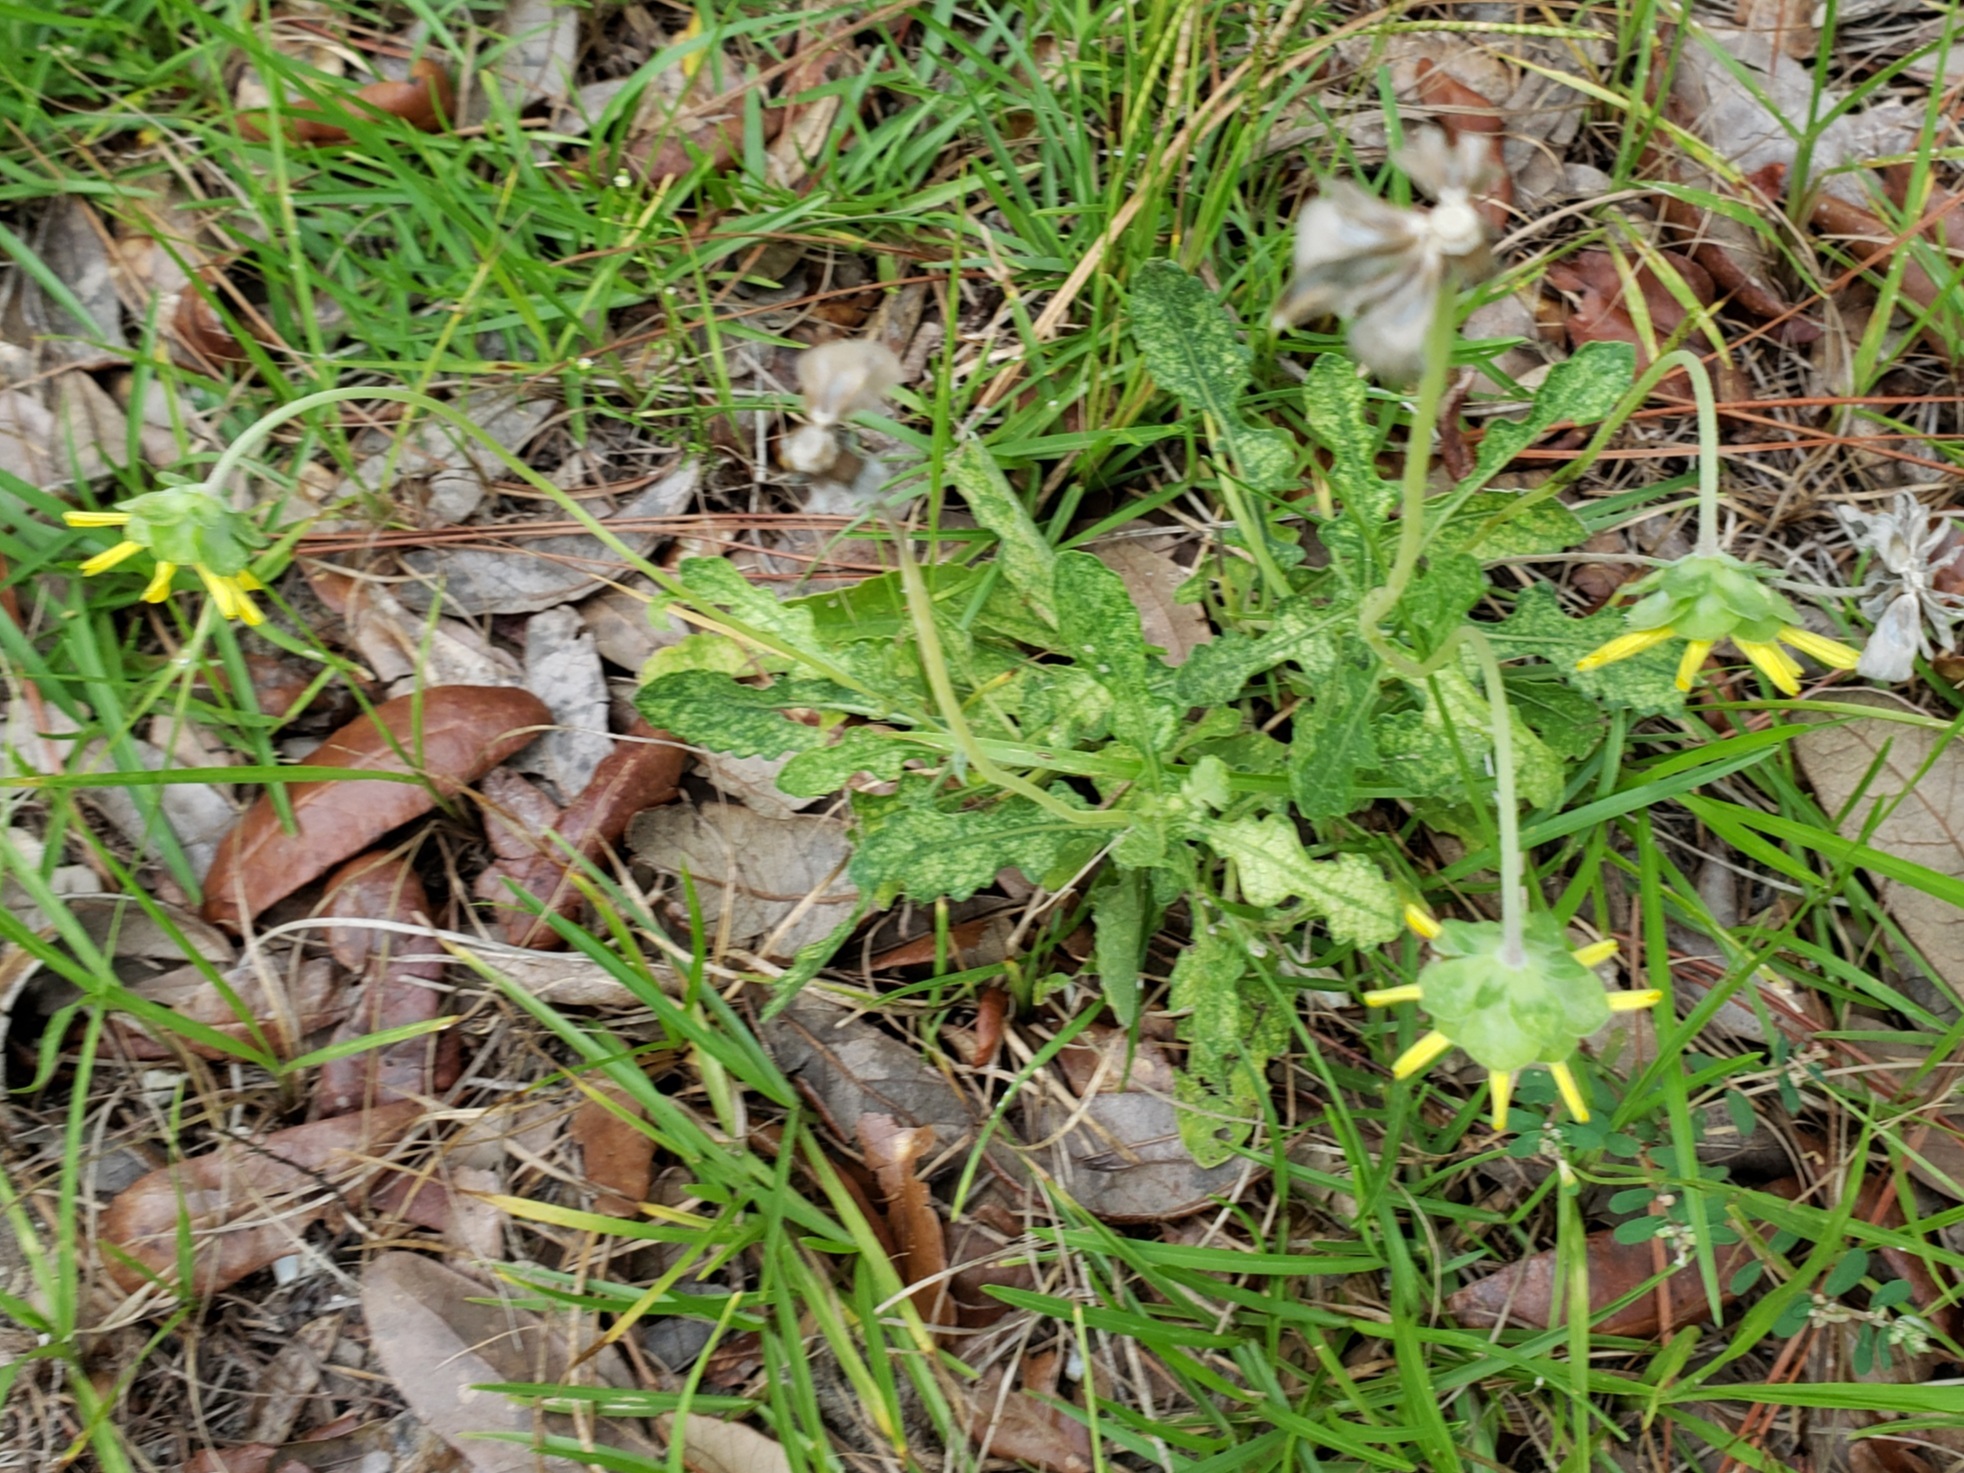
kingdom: Plantae
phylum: Tracheophyta
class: Magnoliopsida
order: Asterales
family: Asteraceae
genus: Berlandiera
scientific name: Berlandiera subacaulis
